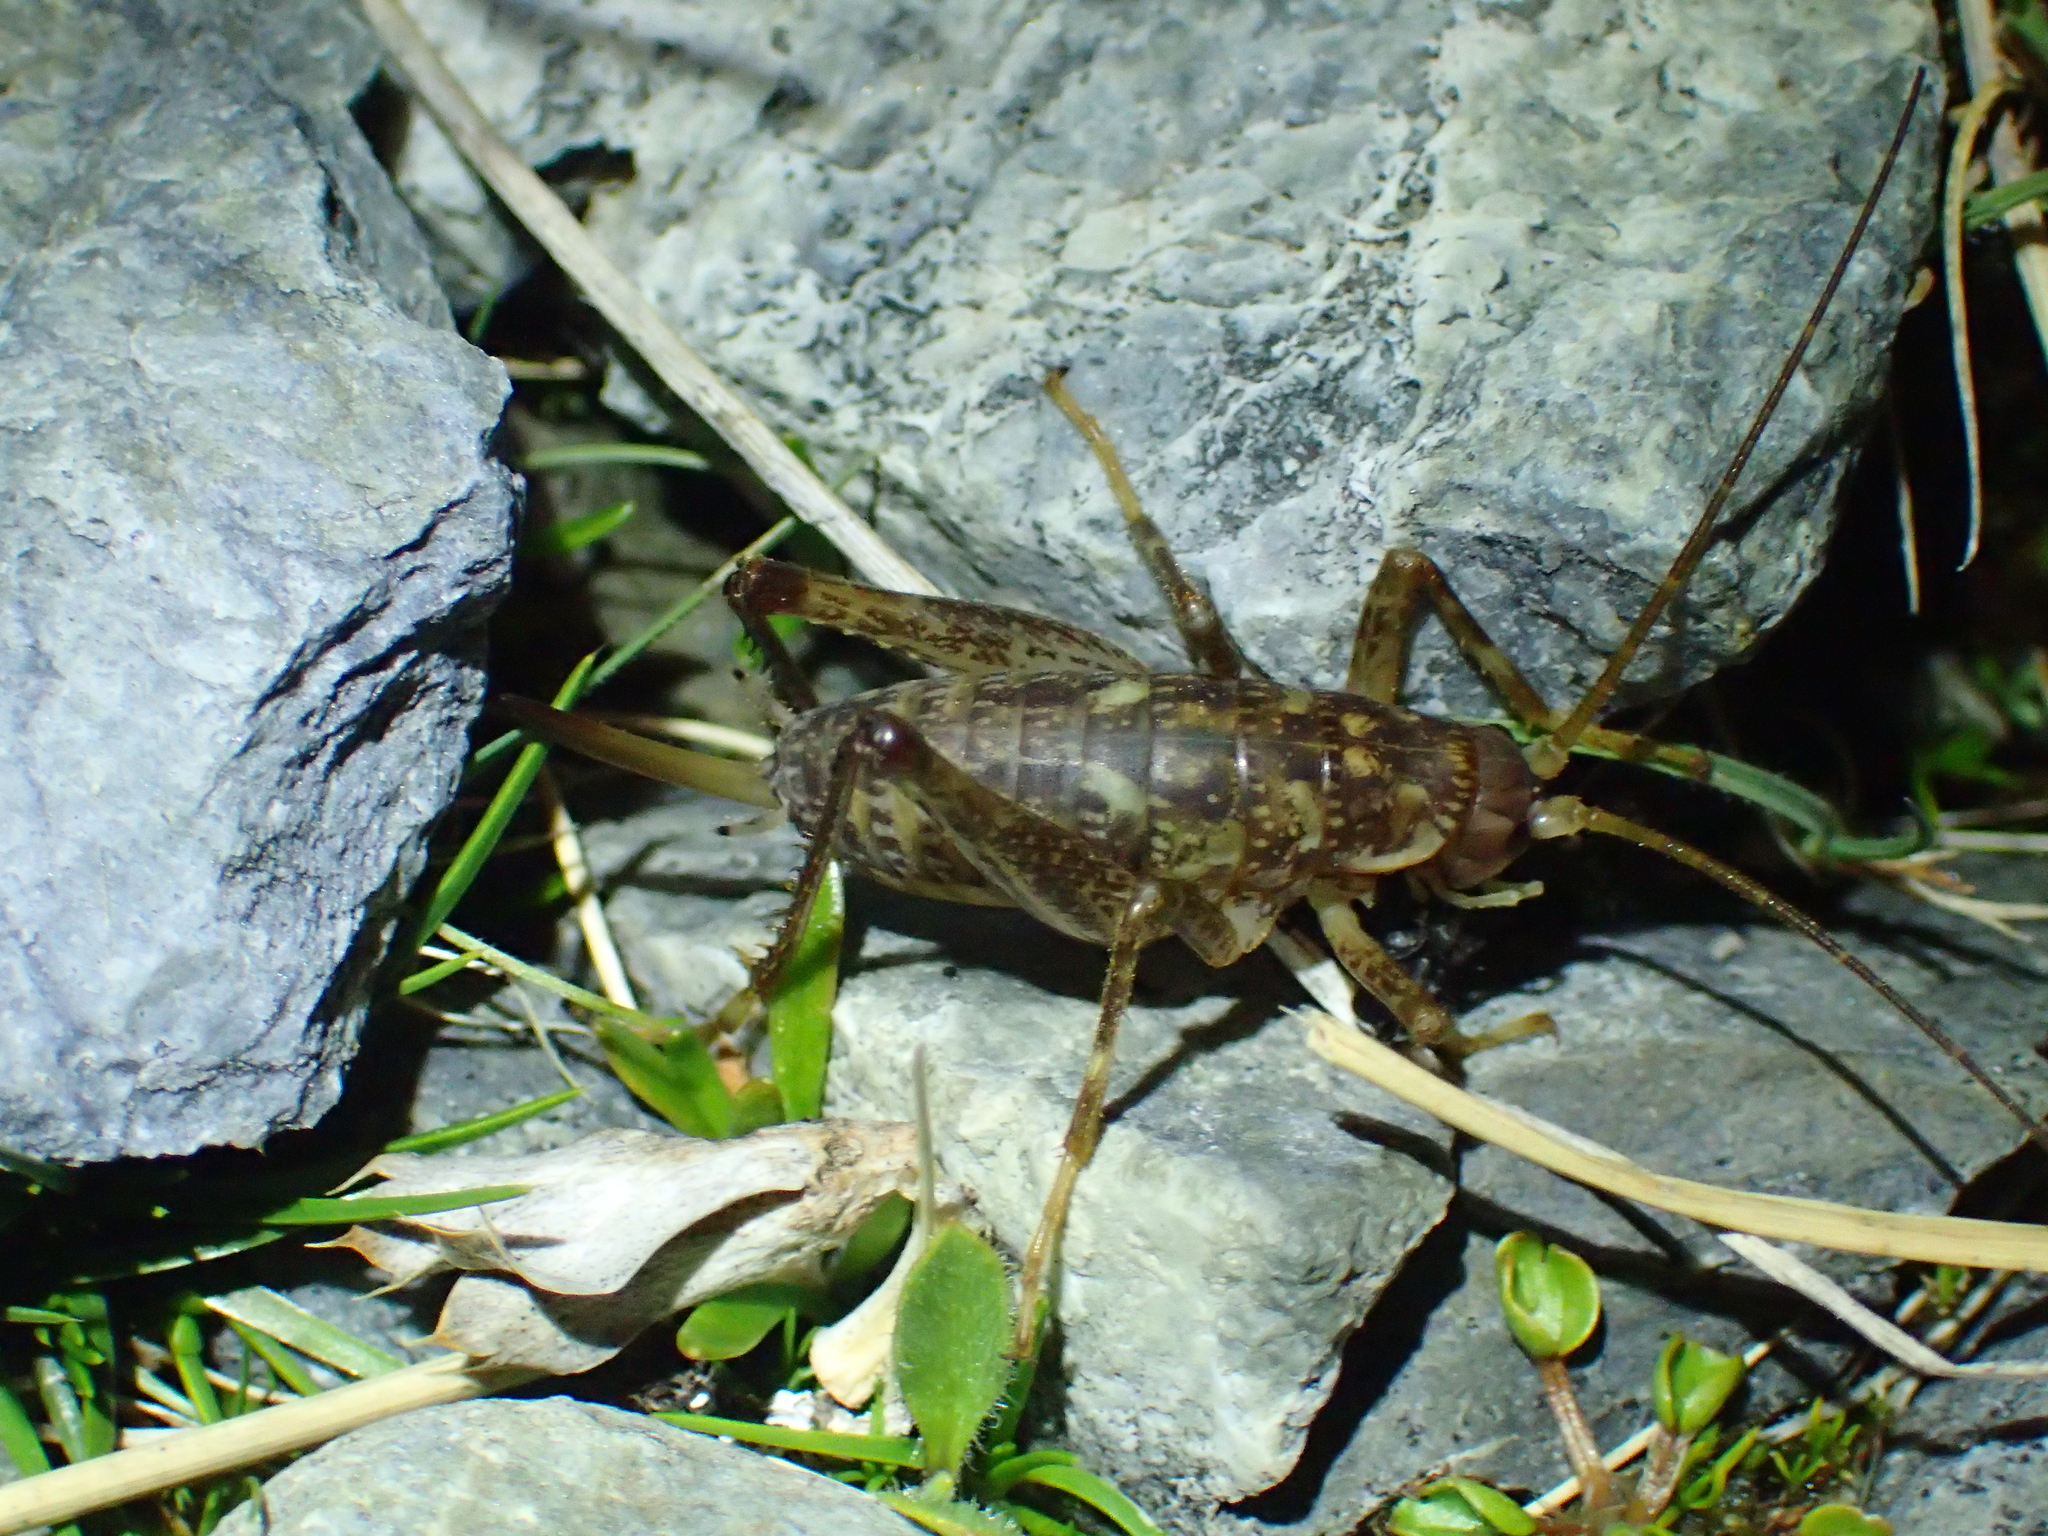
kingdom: Animalia
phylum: Arthropoda
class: Insecta
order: Orthoptera
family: Rhaphidophoridae
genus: Notoplectron
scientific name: Notoplectron brewsterensis
